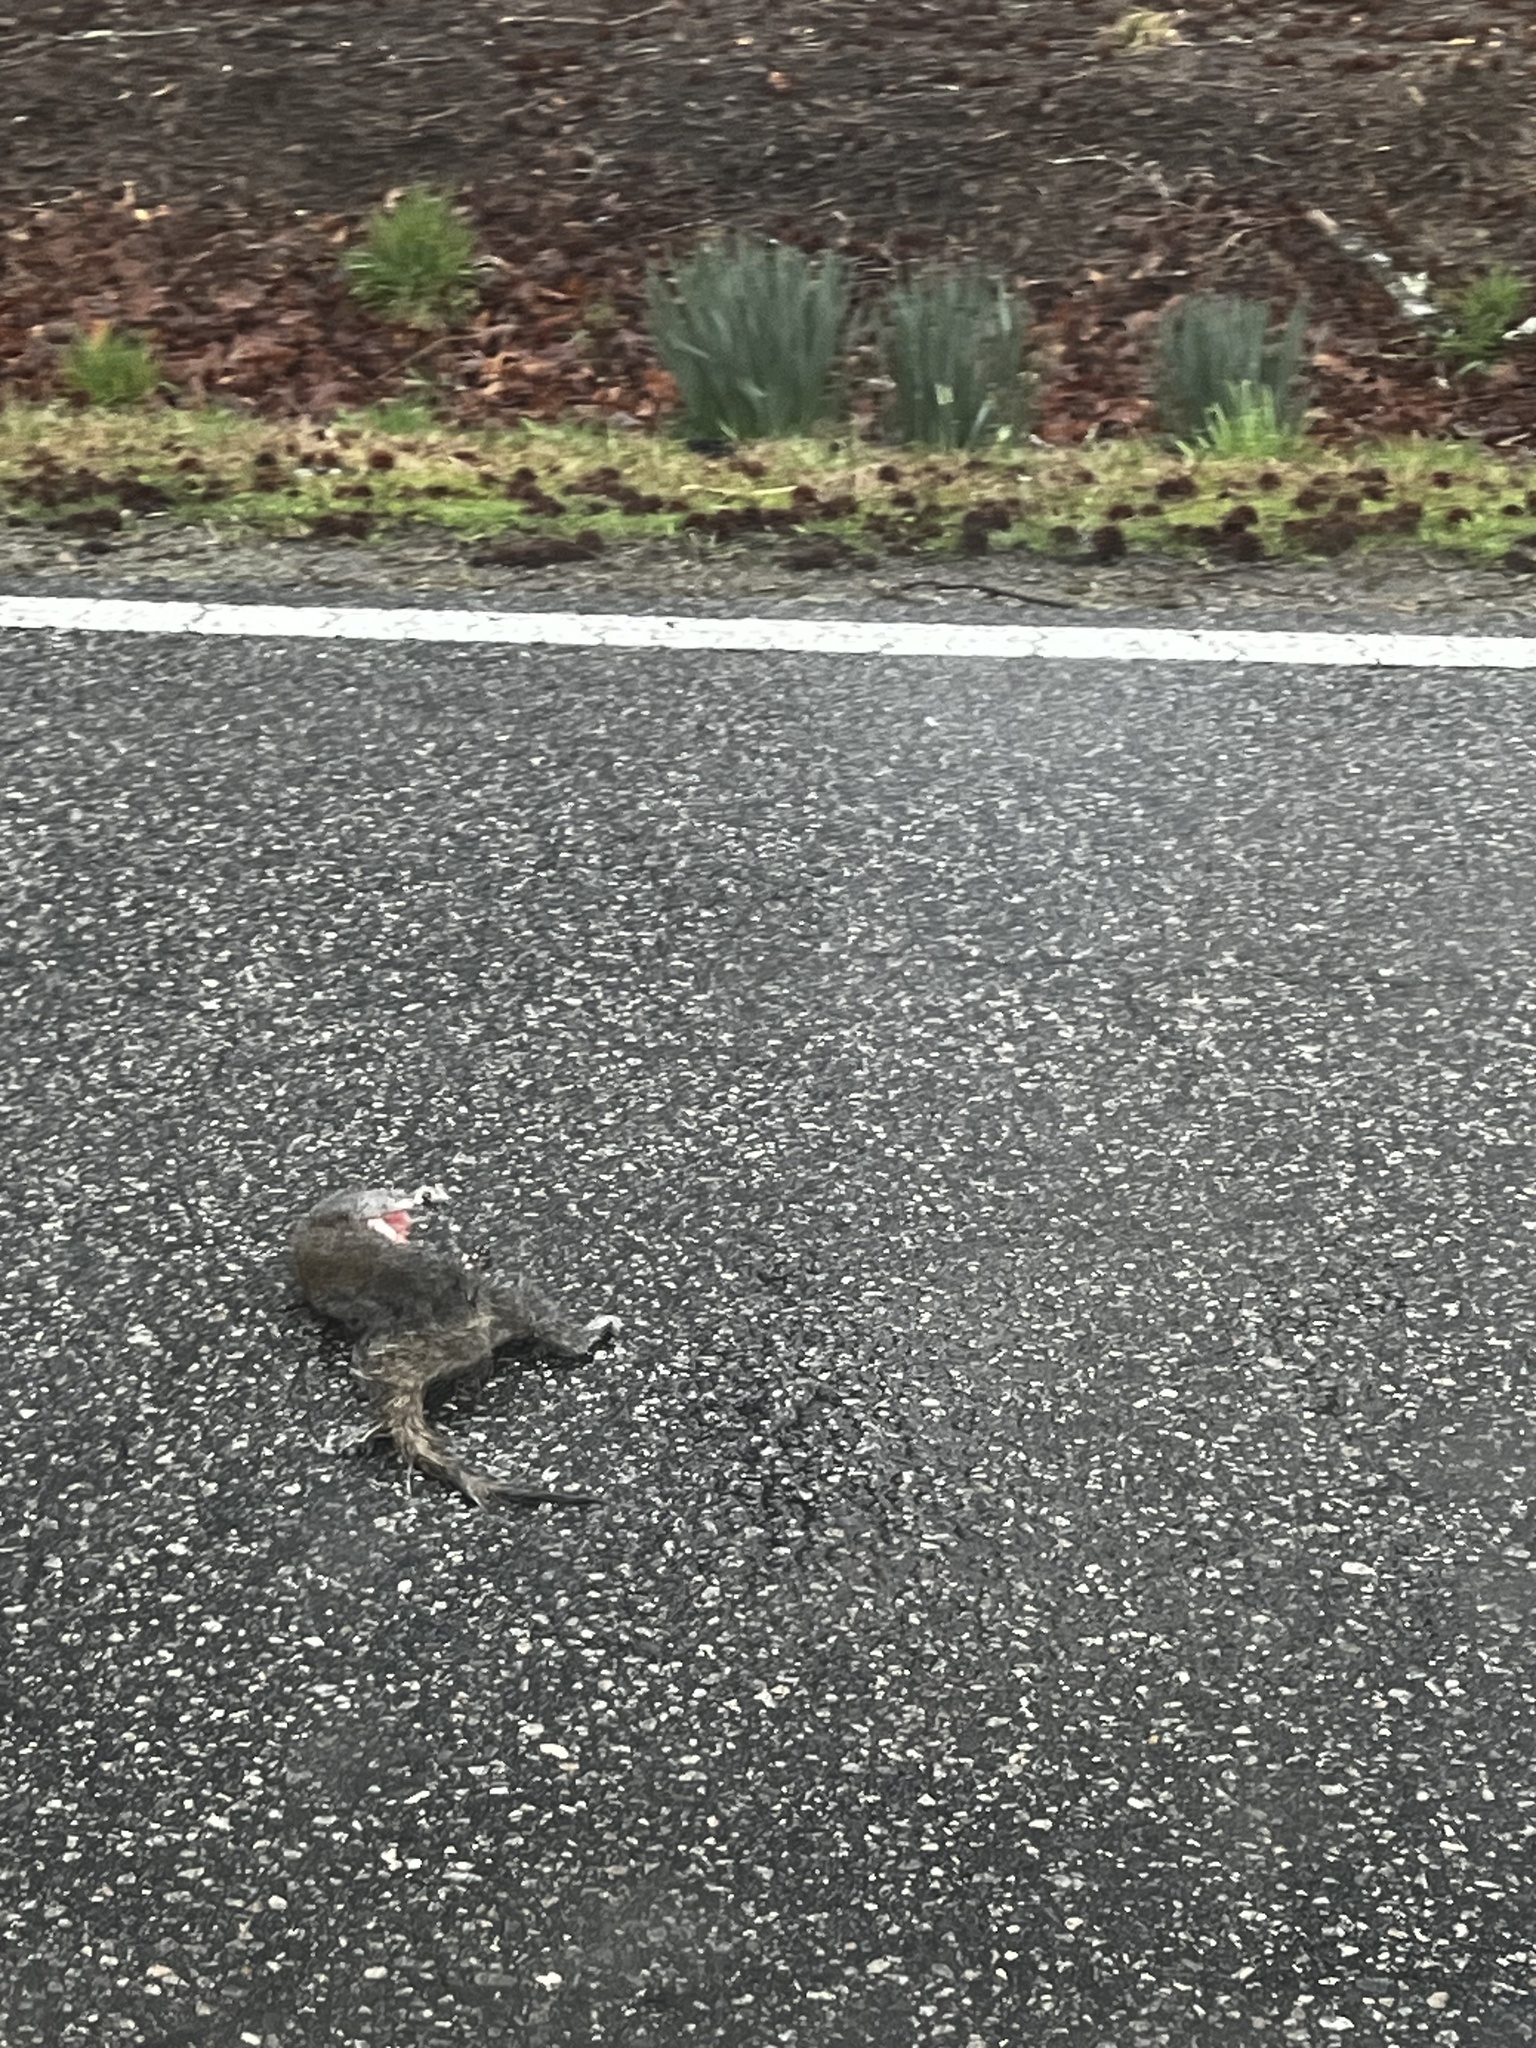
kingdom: Animalia
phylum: Chordata
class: Mammalia
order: Rodentia
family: Sciuridae
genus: Sciurus
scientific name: Sciurus carolinensis
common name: Eastern gray squirrel
